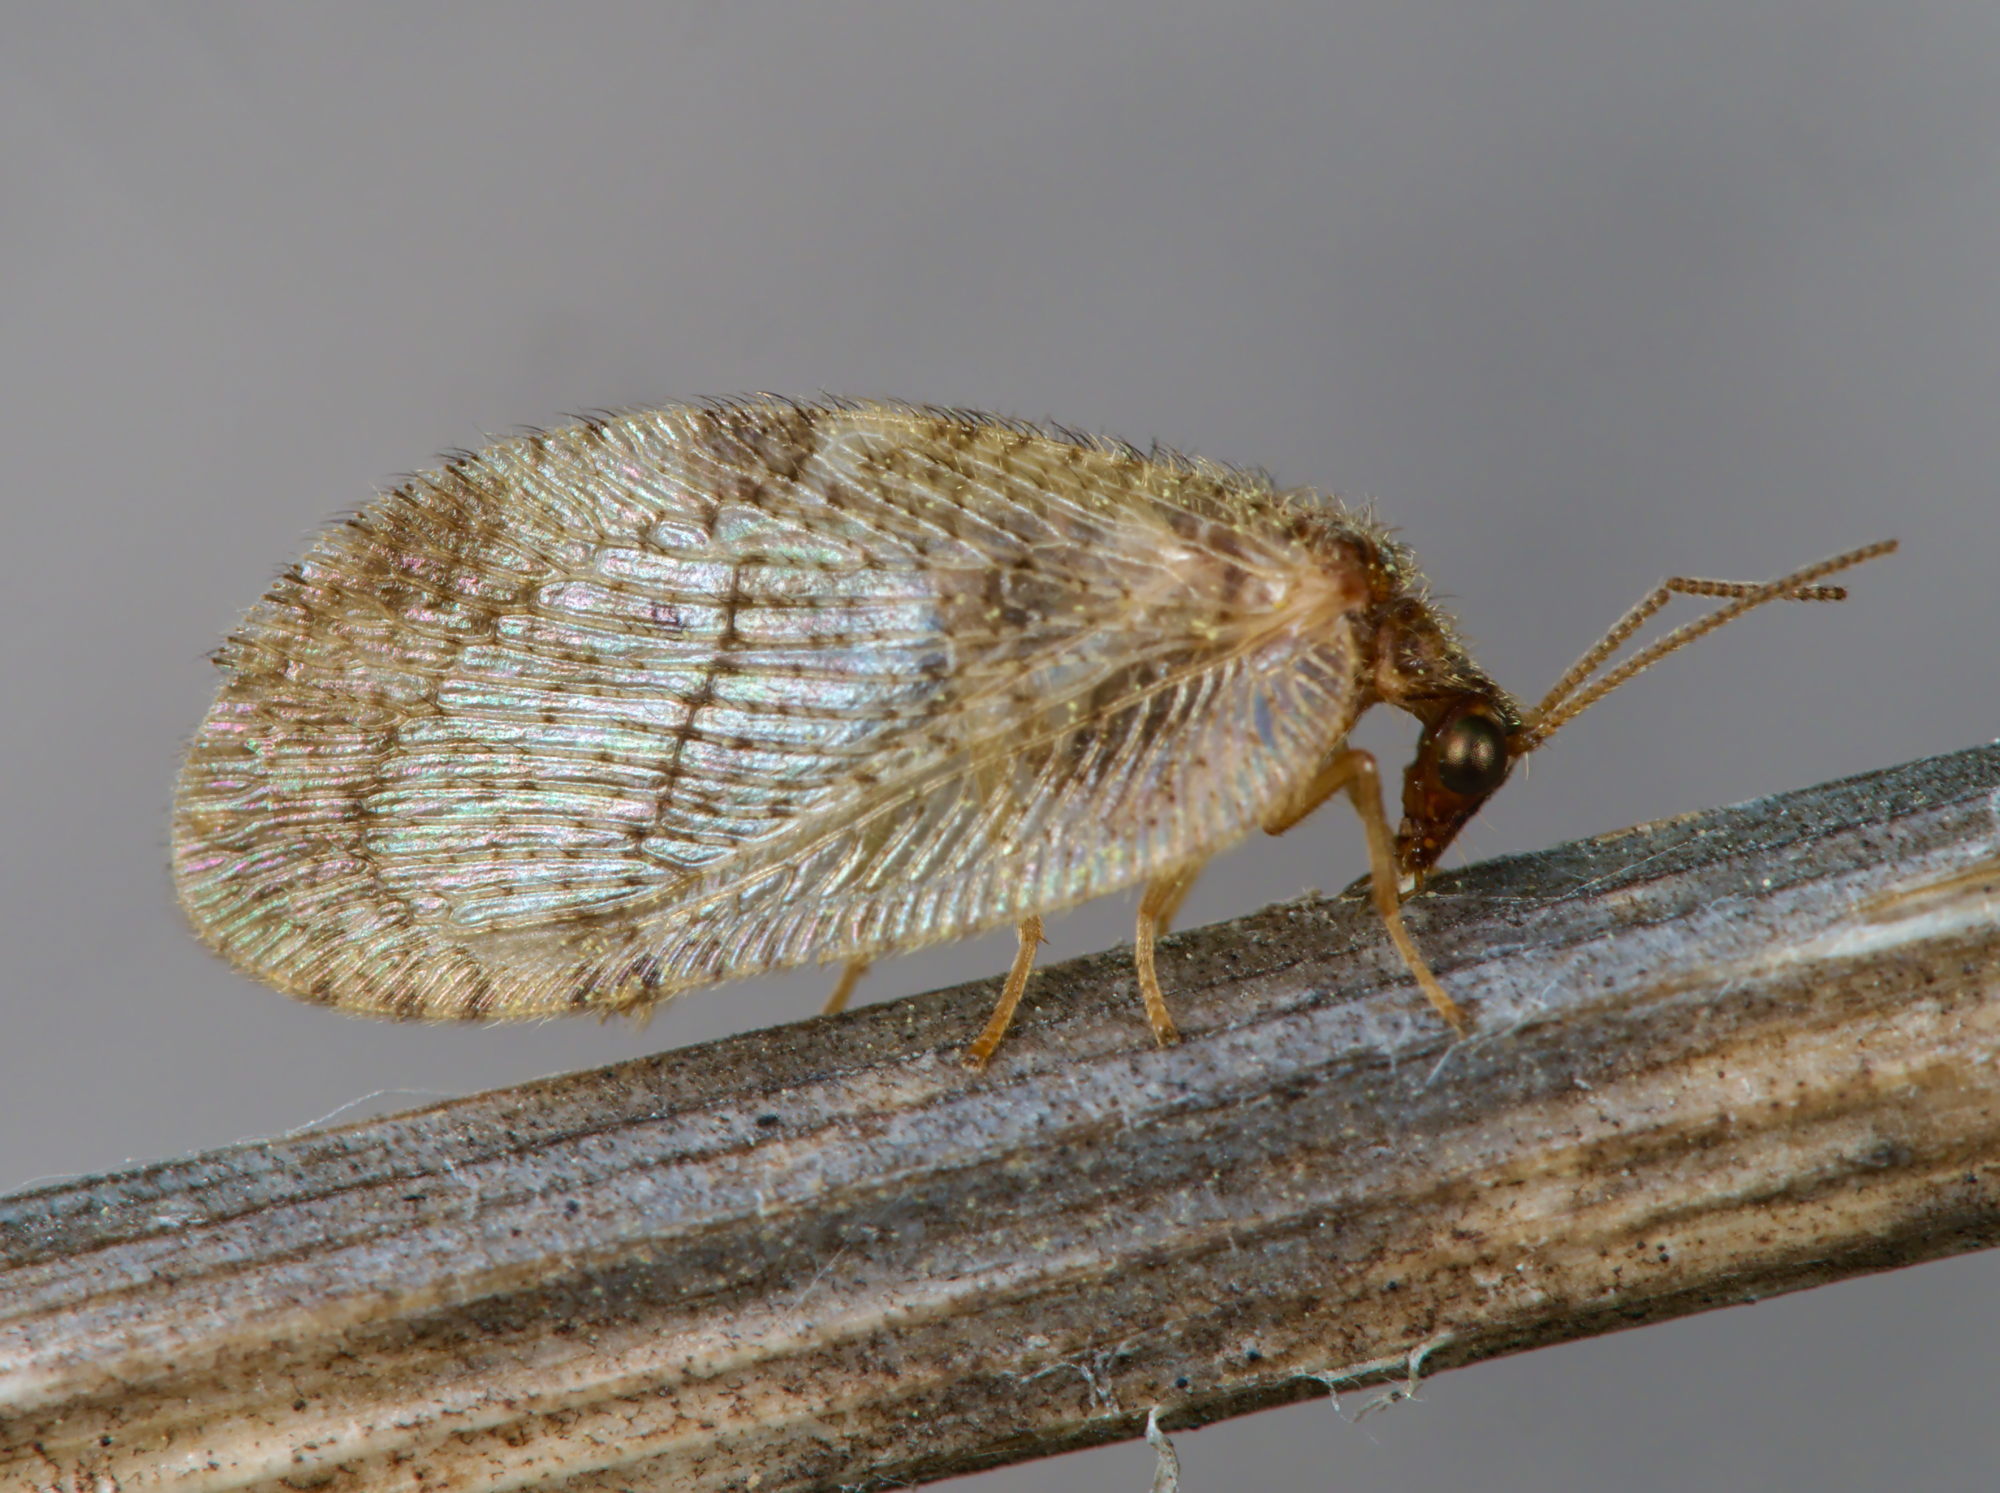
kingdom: Animalia
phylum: Arthropoda
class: Insecta
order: Neuroptera
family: Hemerobiidae
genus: Megalomus
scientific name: Megalomus tortricoides
